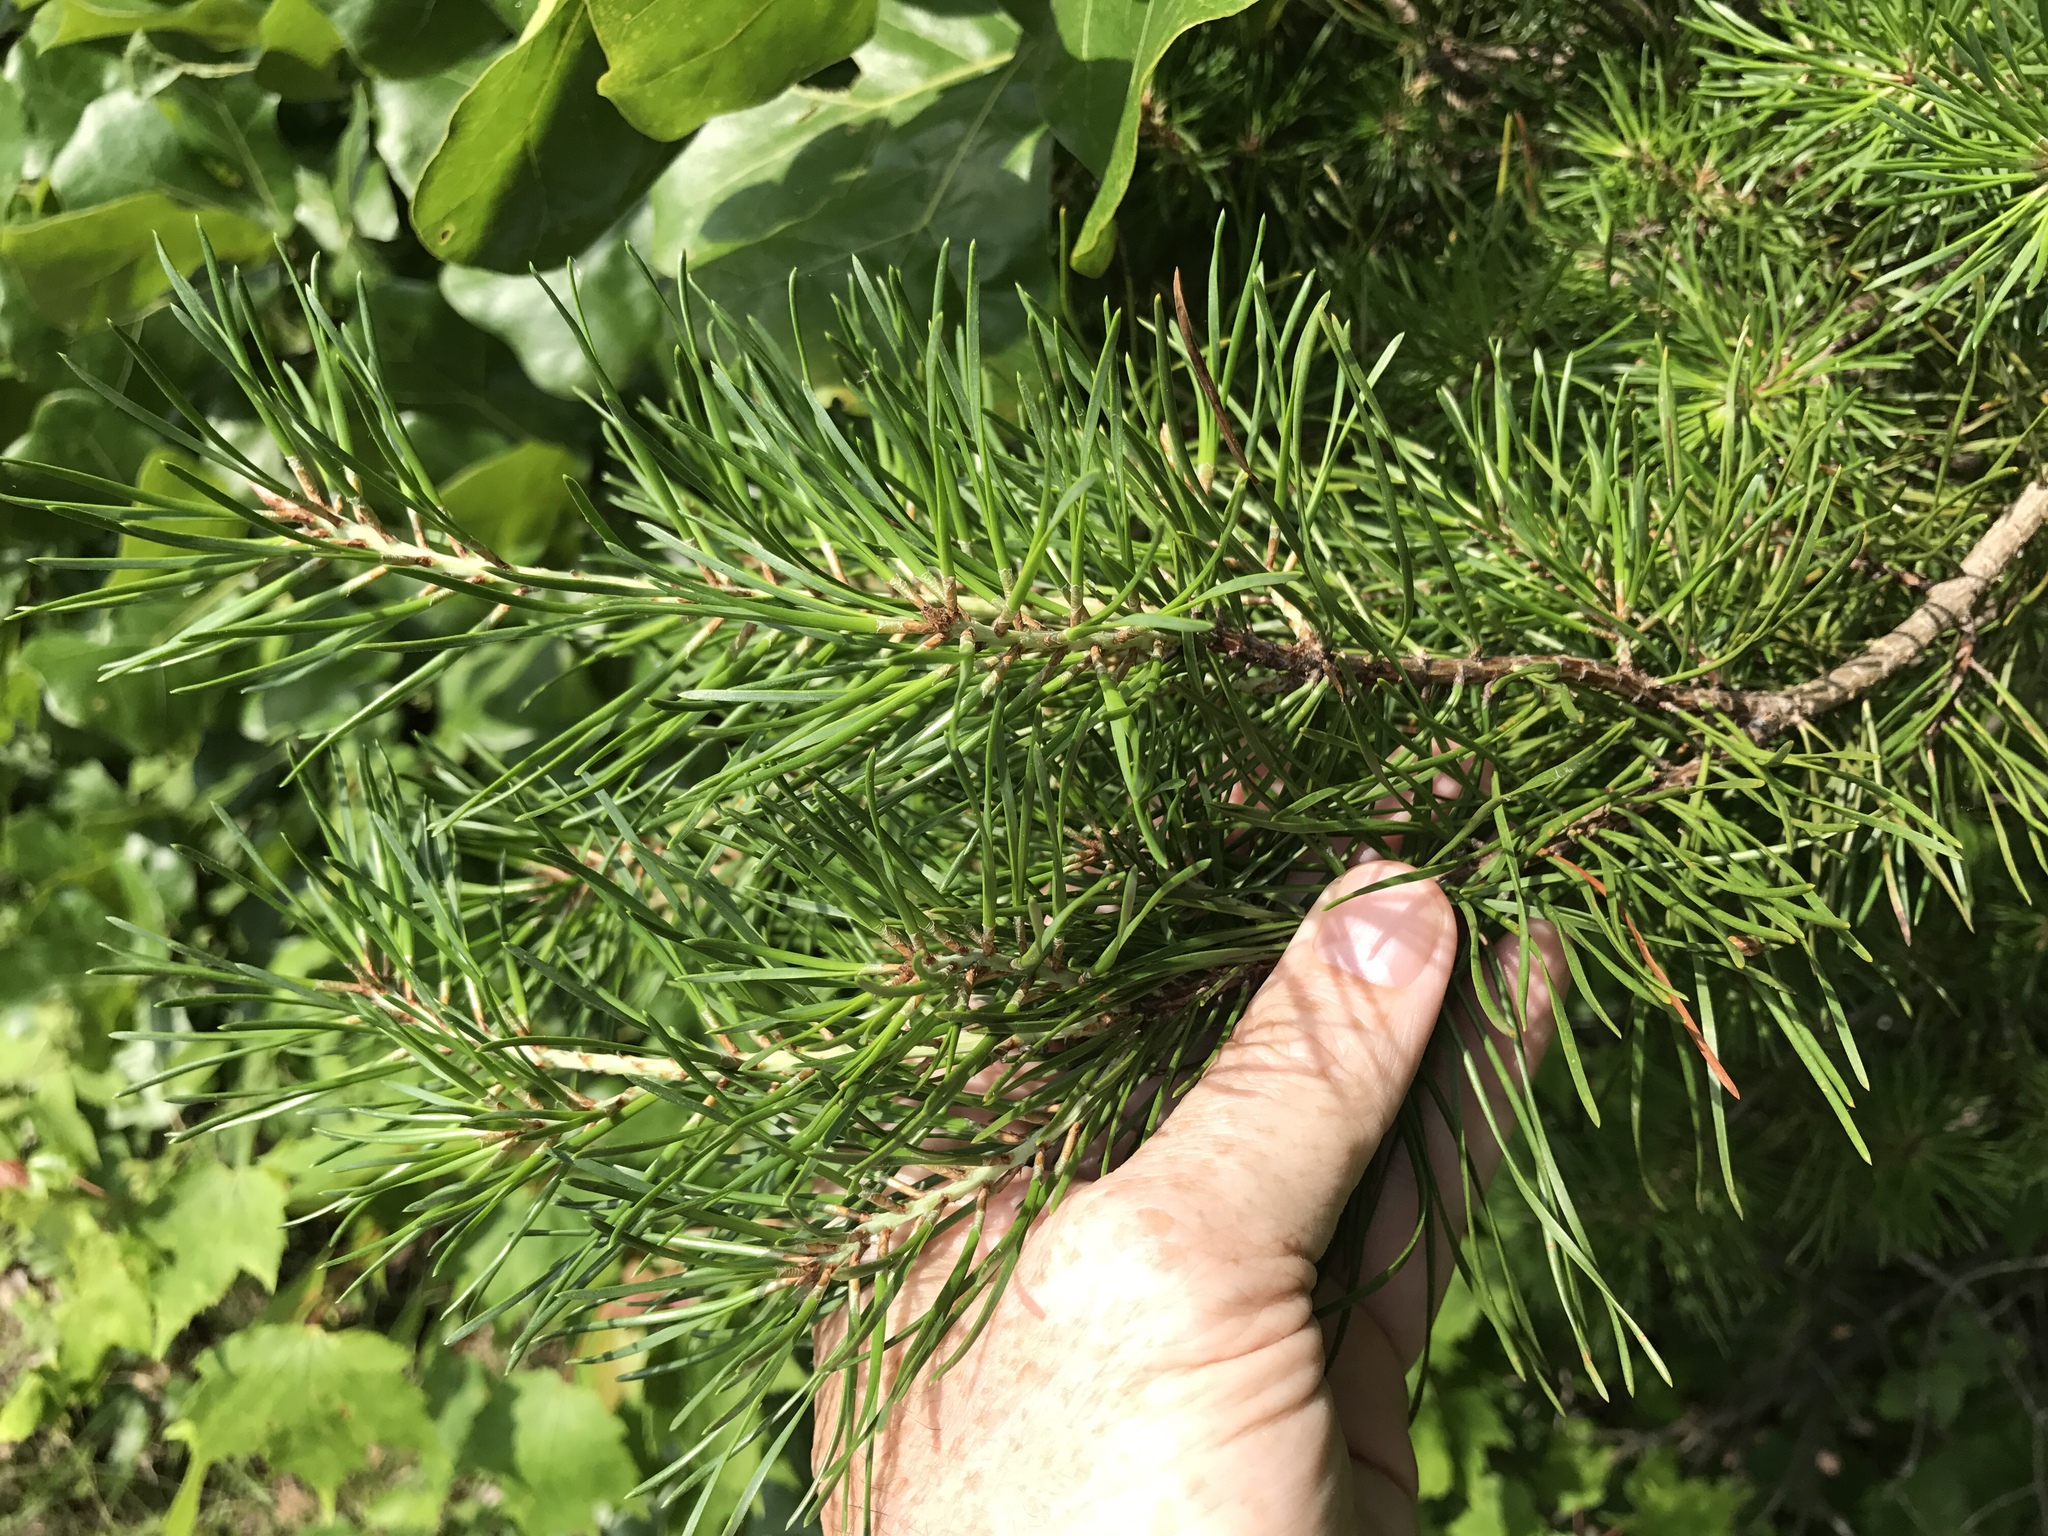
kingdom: Plantae
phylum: Tracheophyta
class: Pinopsida
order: Pinales
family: Pinaceae
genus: Pinus
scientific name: Pinus virginiana
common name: Scrub pine
